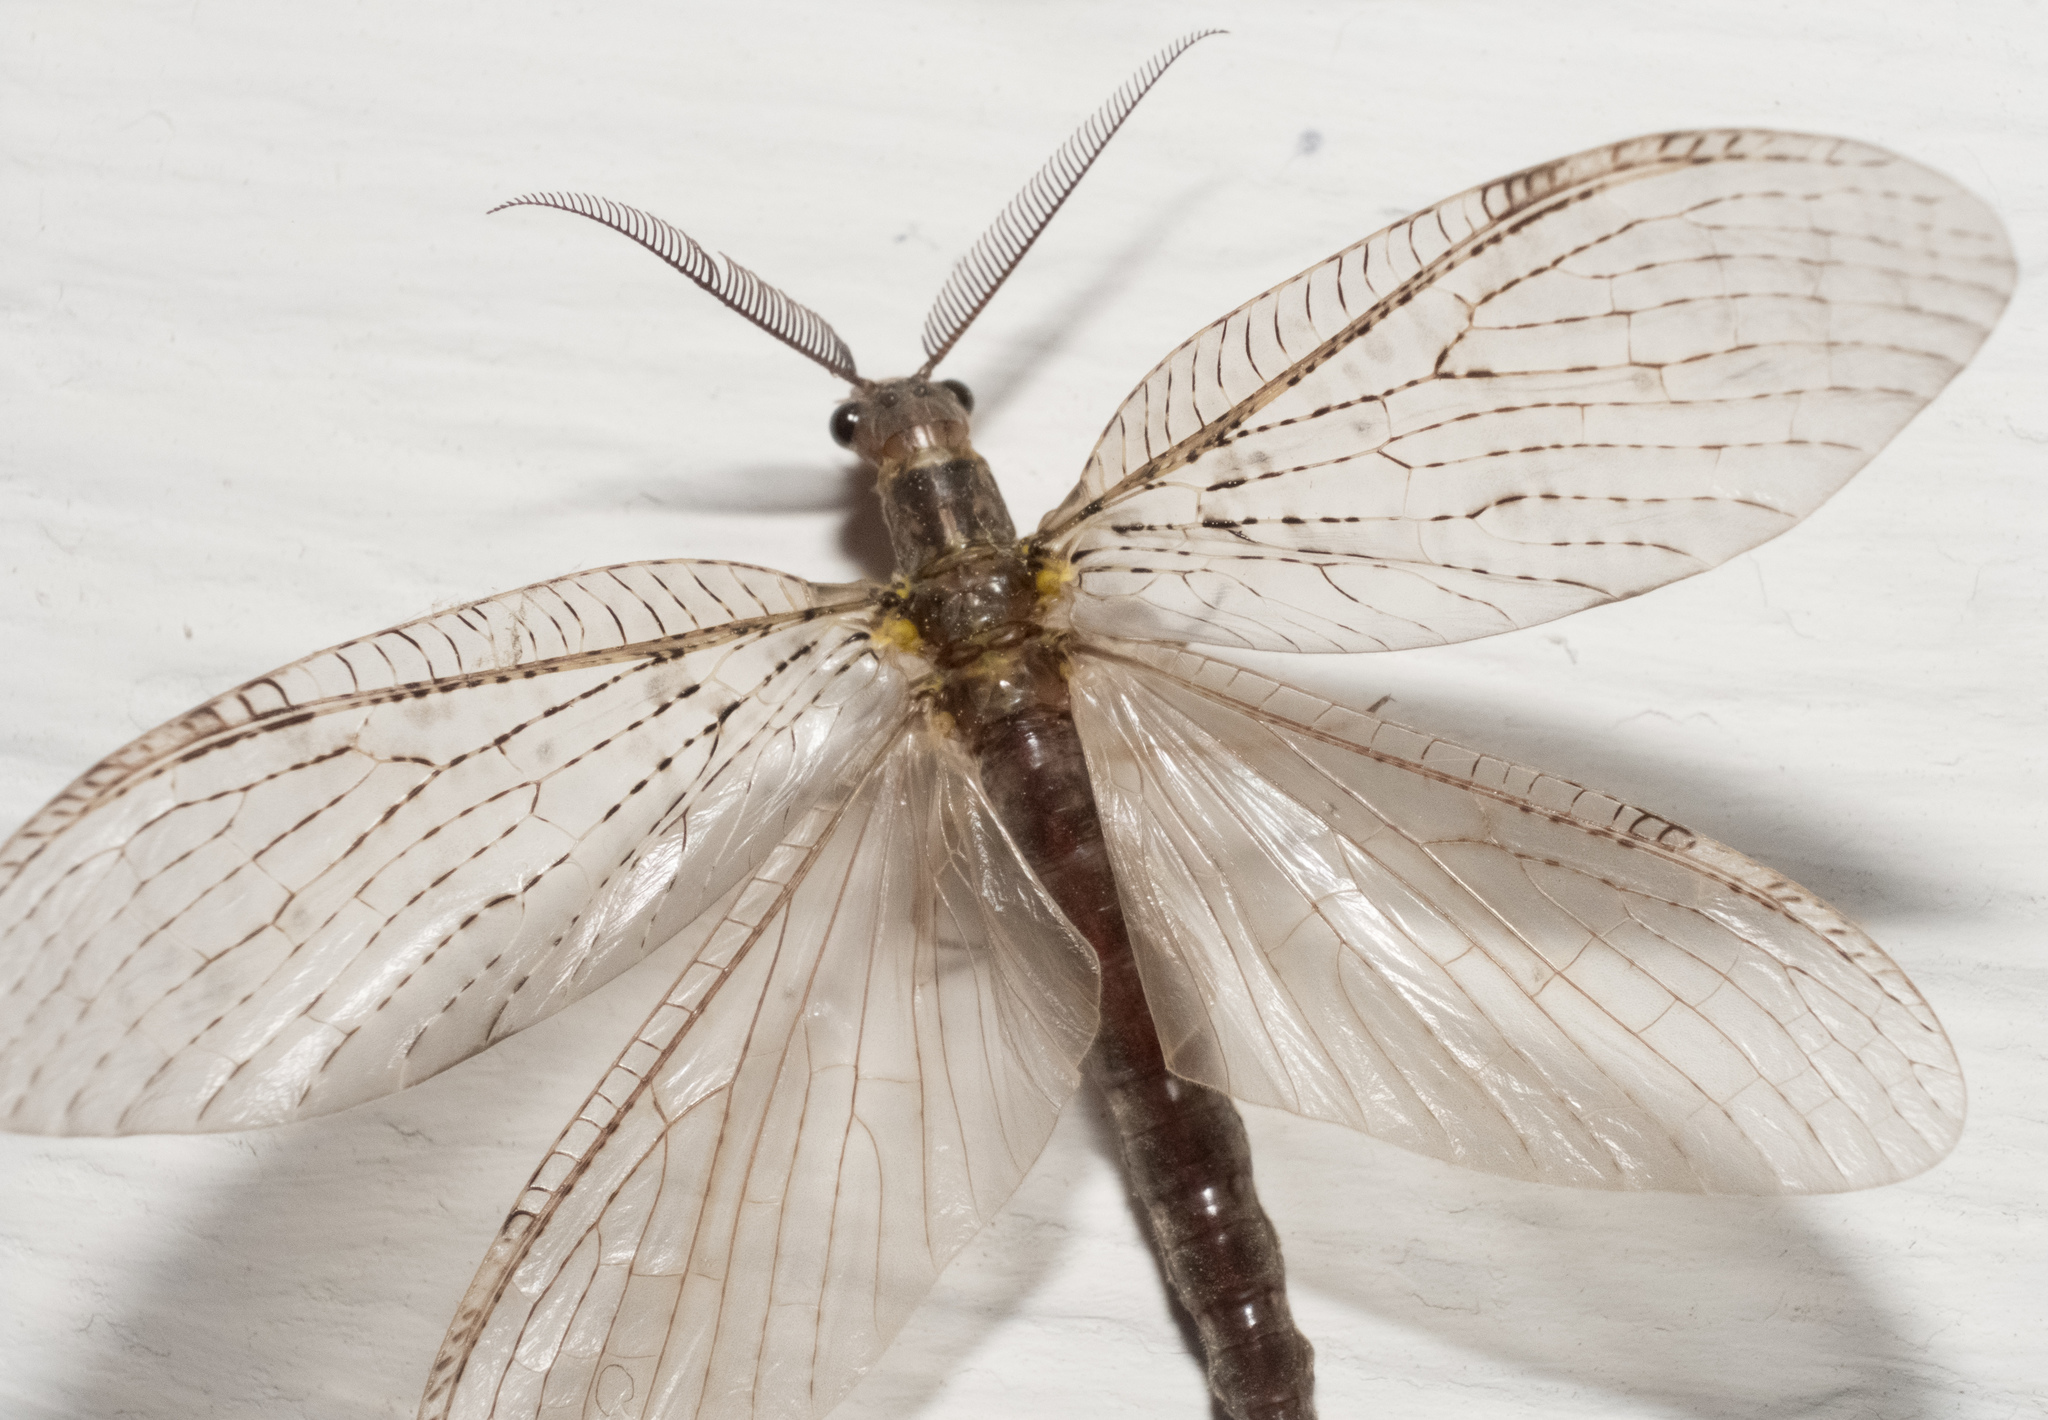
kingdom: Animalia
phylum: Arthropoda
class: Insecta
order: Megaloptera
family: Corydalidae
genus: Chauliodes
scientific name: Chauliodes pectinicornis
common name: Summer fishfly
